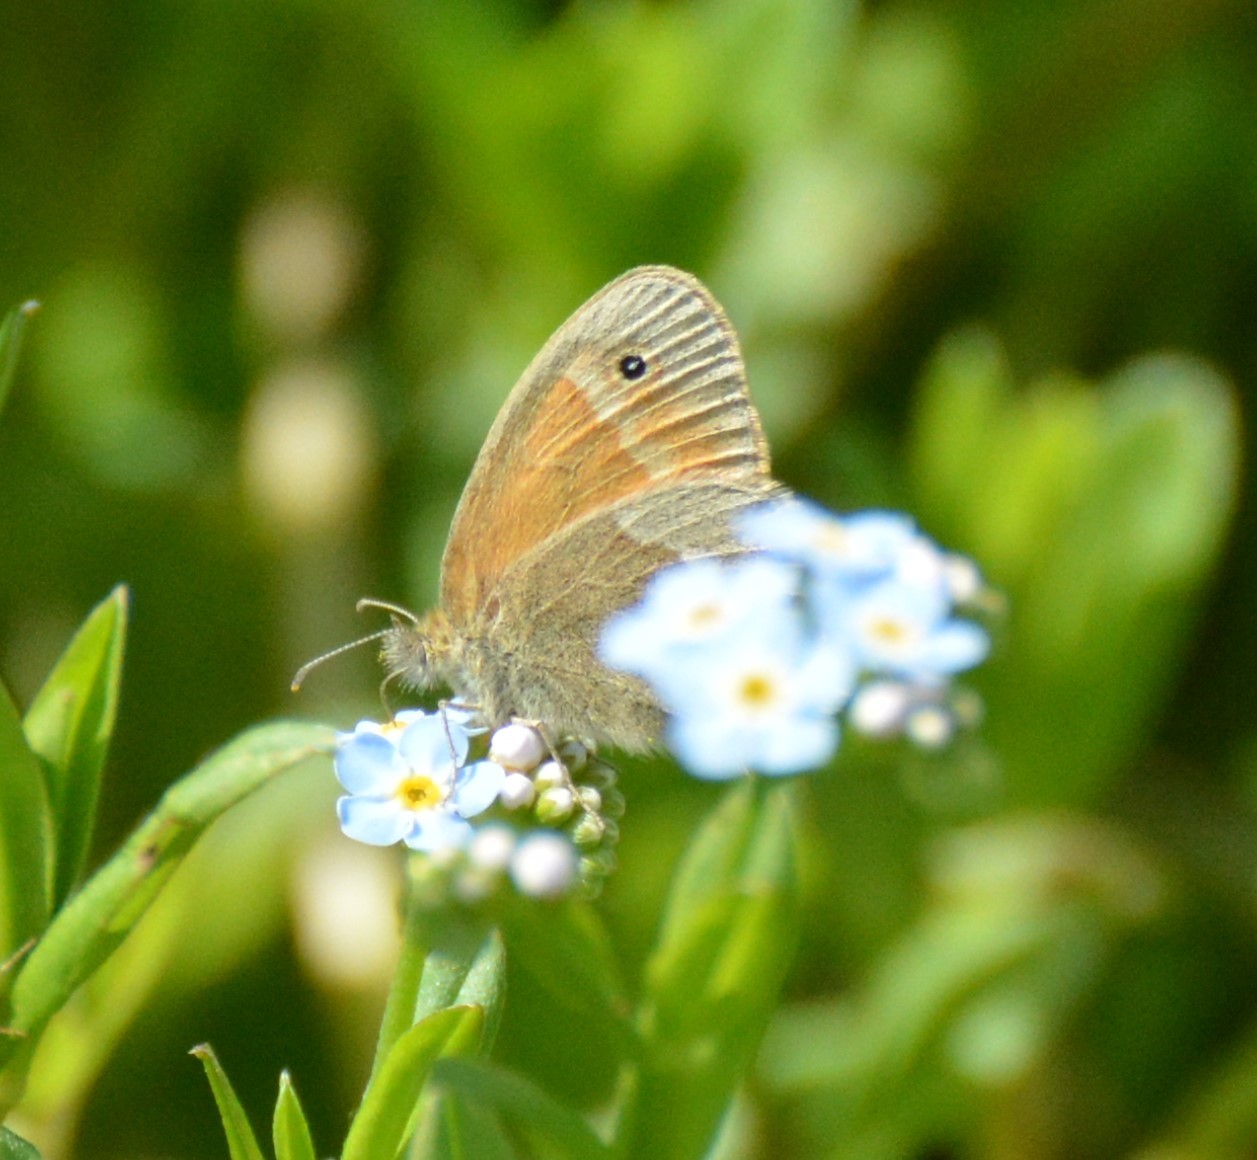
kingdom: Animalia
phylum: Arthropoda
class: Insecta
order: Lepidoptera
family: Nymphalidae
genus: Coenonympha
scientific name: Coenonympha california
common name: Common ringlet
